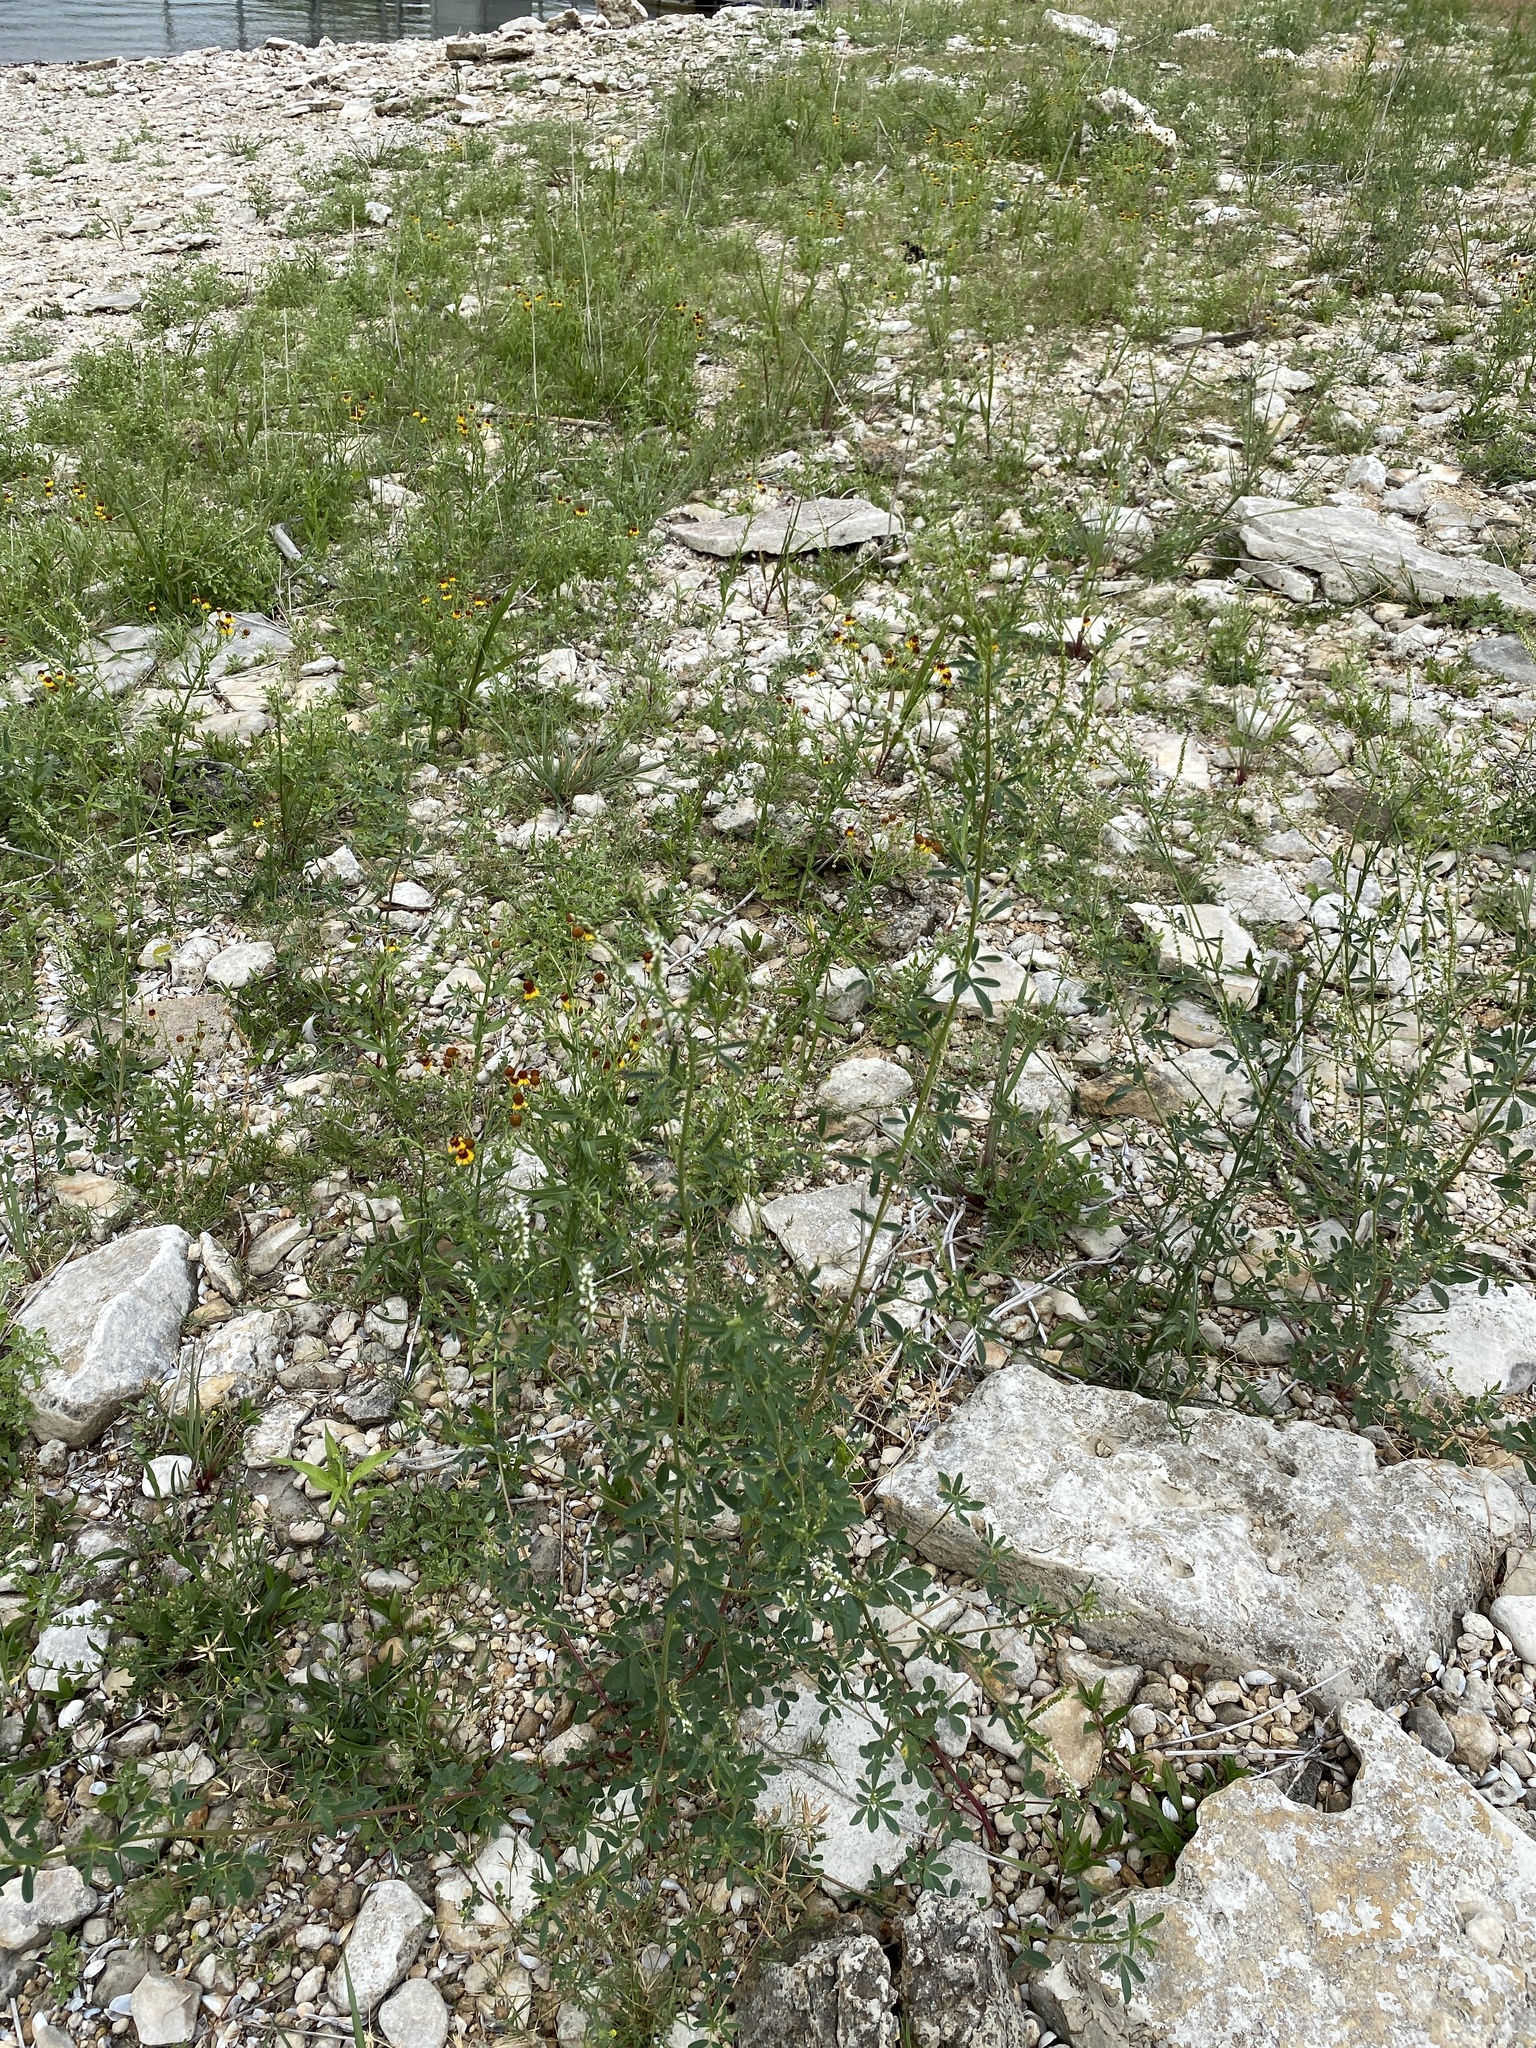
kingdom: Plantae
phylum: Tracheophyta
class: Magnoliopsida
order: Fabales
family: Fabaceae
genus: Melilotus
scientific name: Melilotus albus
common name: White melilot
